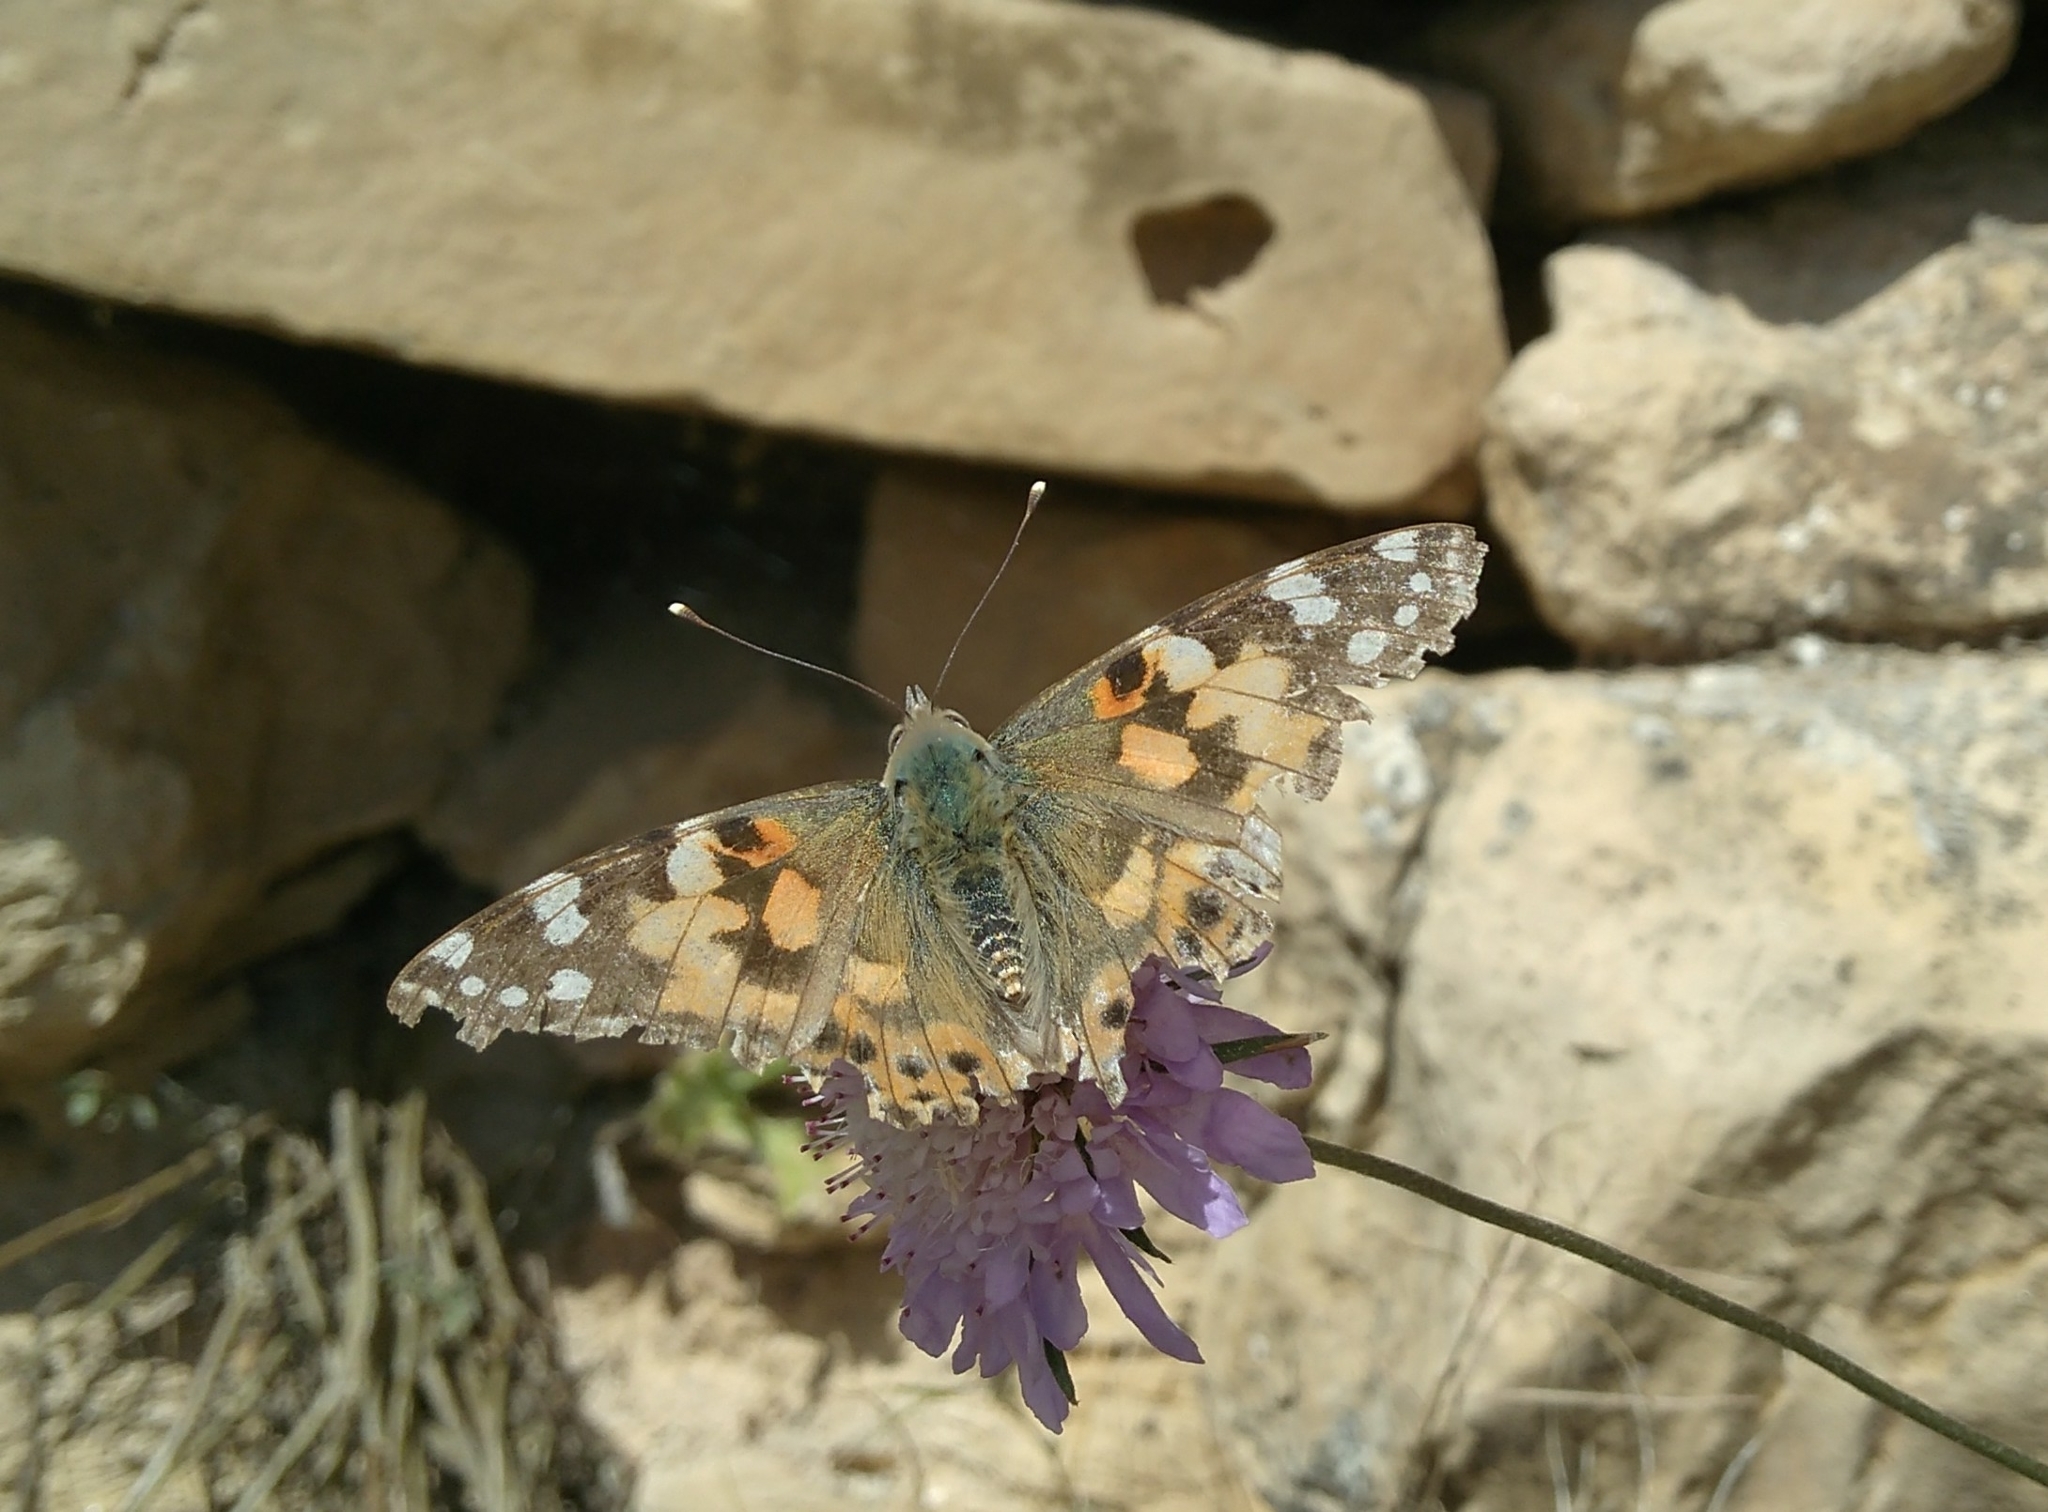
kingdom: Animalia
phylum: Arthropoda
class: Insecta
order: Lepidoptera
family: Nymphalidae
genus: Vanessa
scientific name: Vanessa cardui
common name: Painted lady
